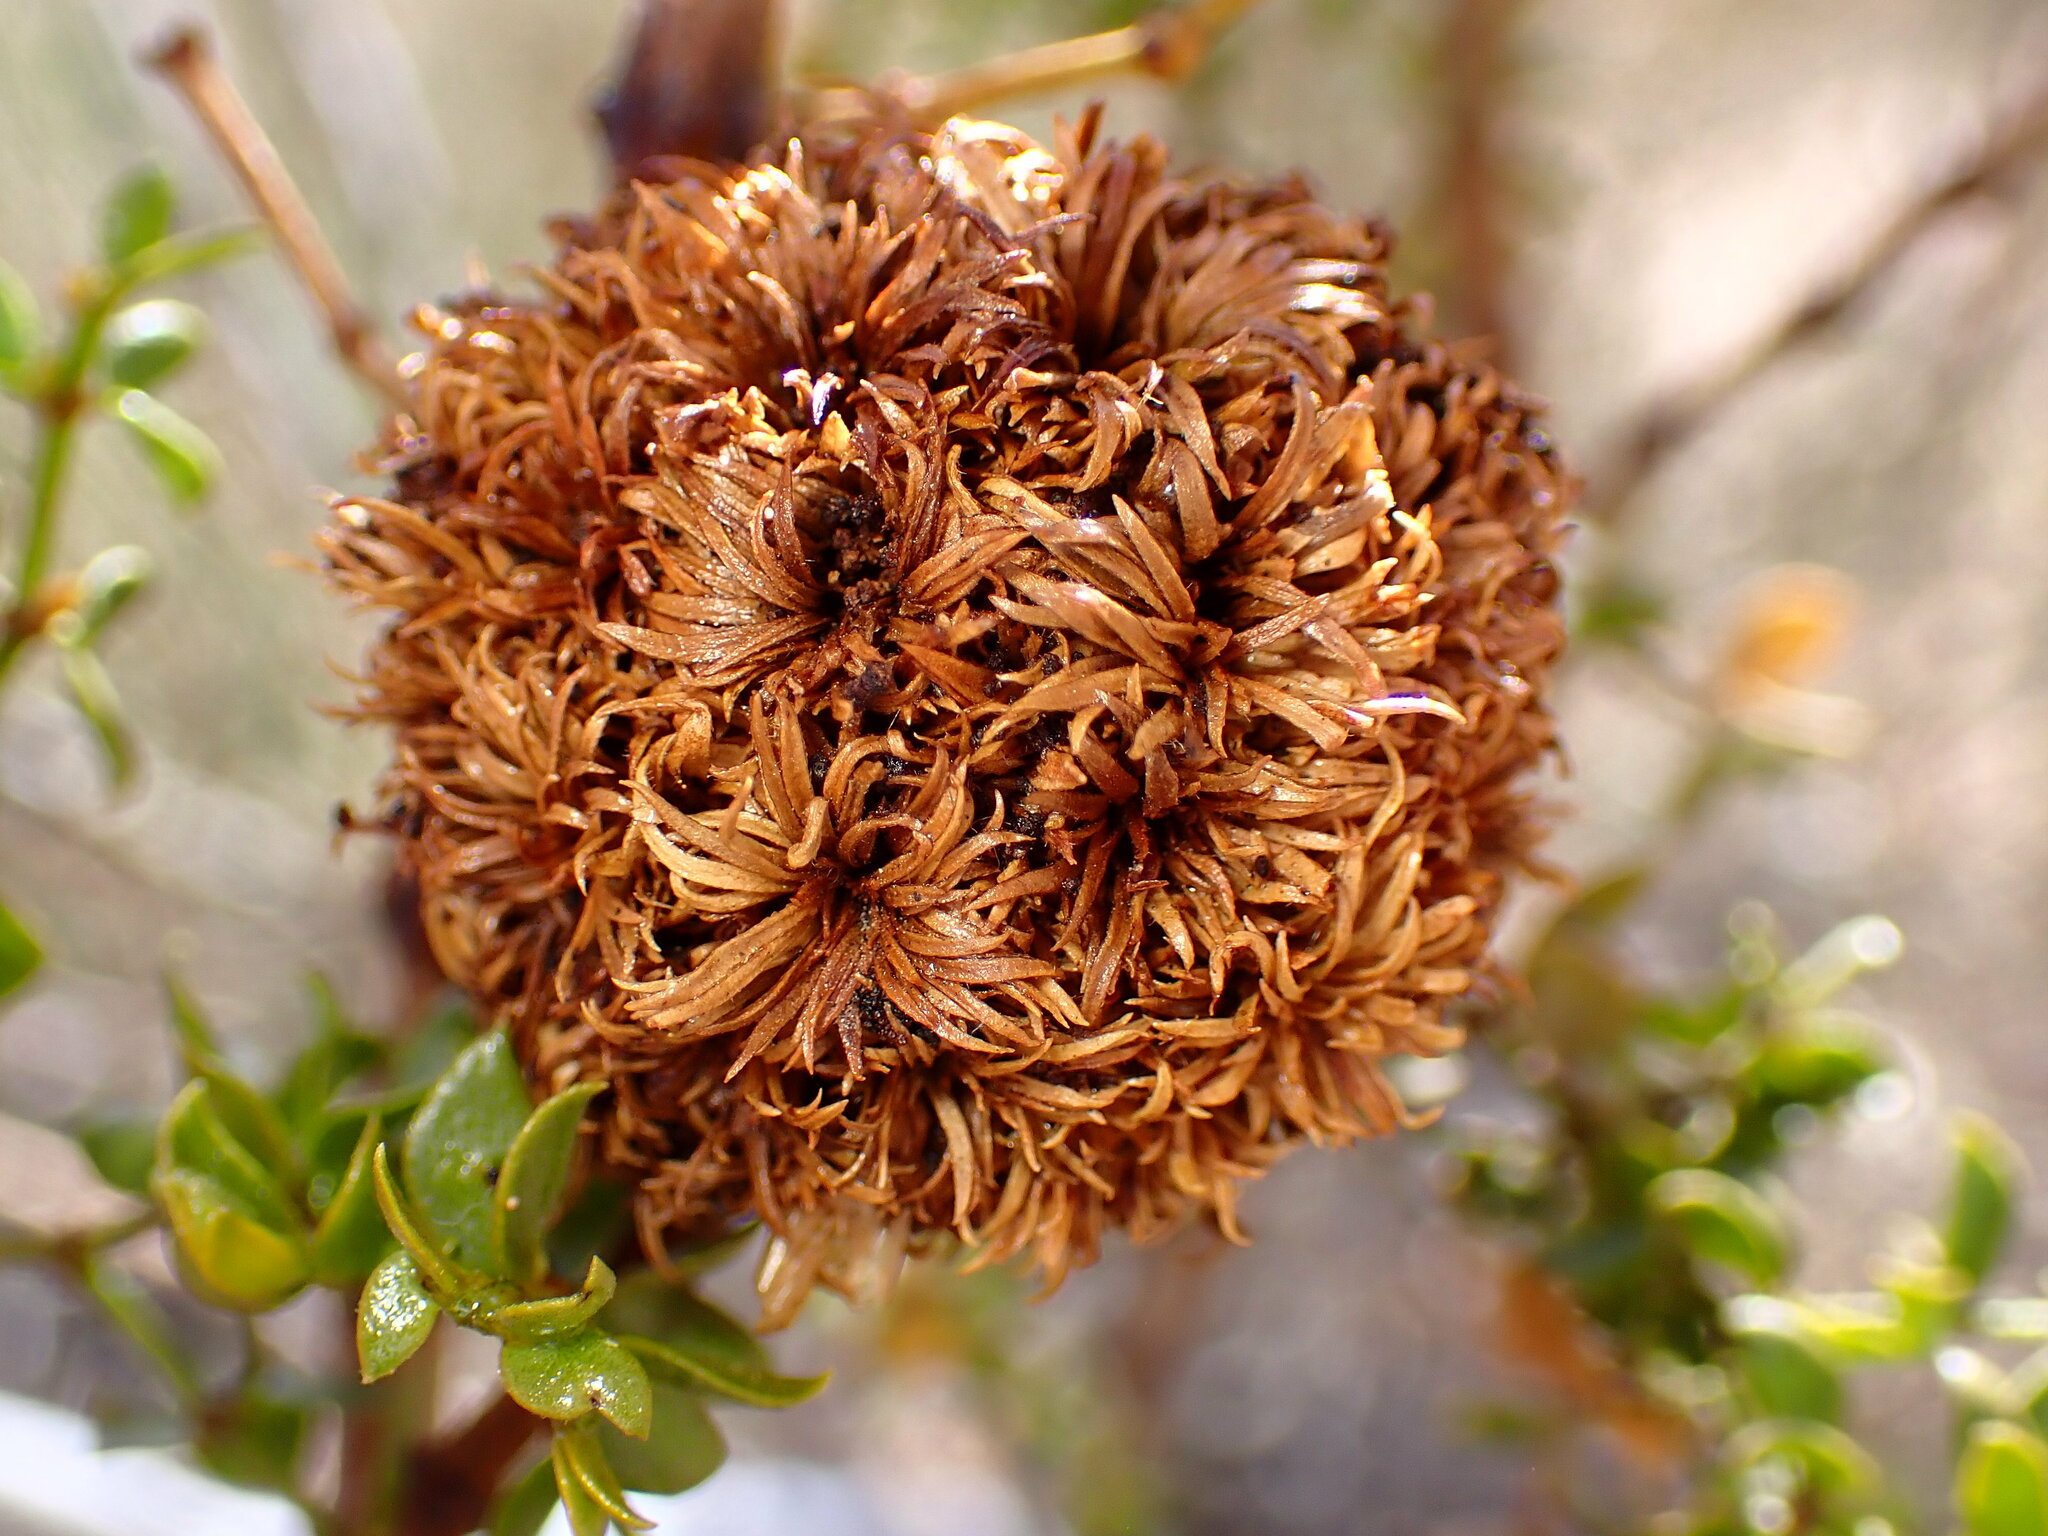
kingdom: Animalia
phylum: Arthropoda
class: Insecta
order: Diptera
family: Cecidomyiidae
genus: Asphondylia
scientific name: Asphondylia auripila
